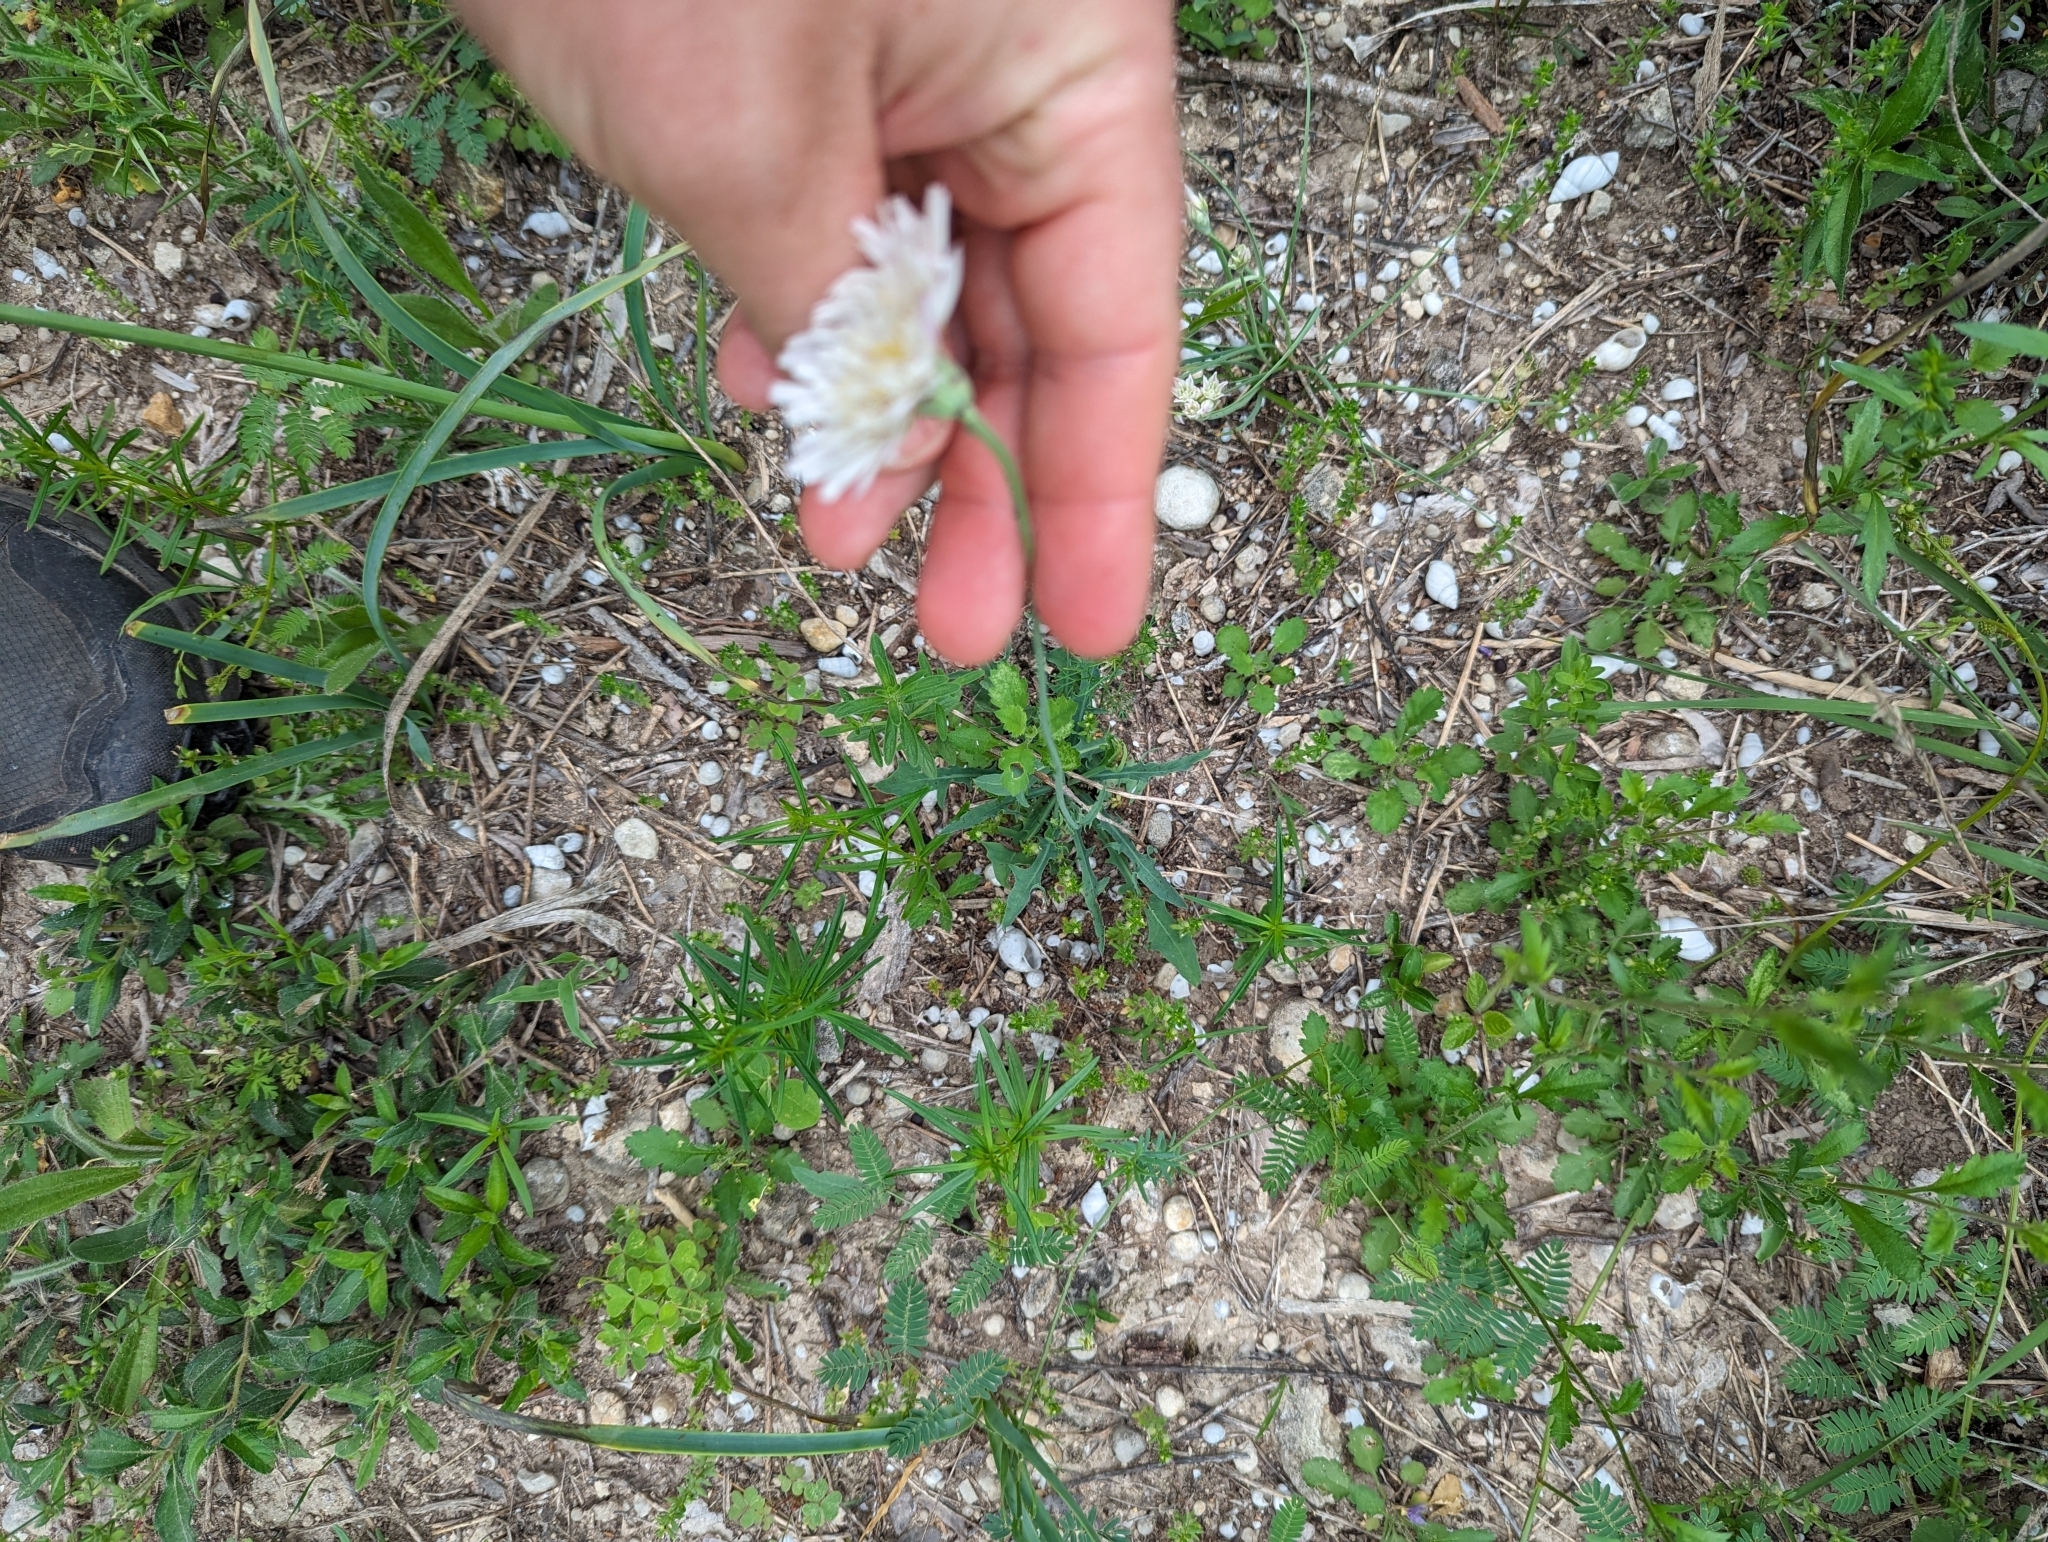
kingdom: Plantae
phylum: Tracheophyta
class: Magnoliopsida
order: Asterales
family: Asteraceae
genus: Pinaropappus
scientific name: Pinaropappus roseus
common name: Rock-lettuce
